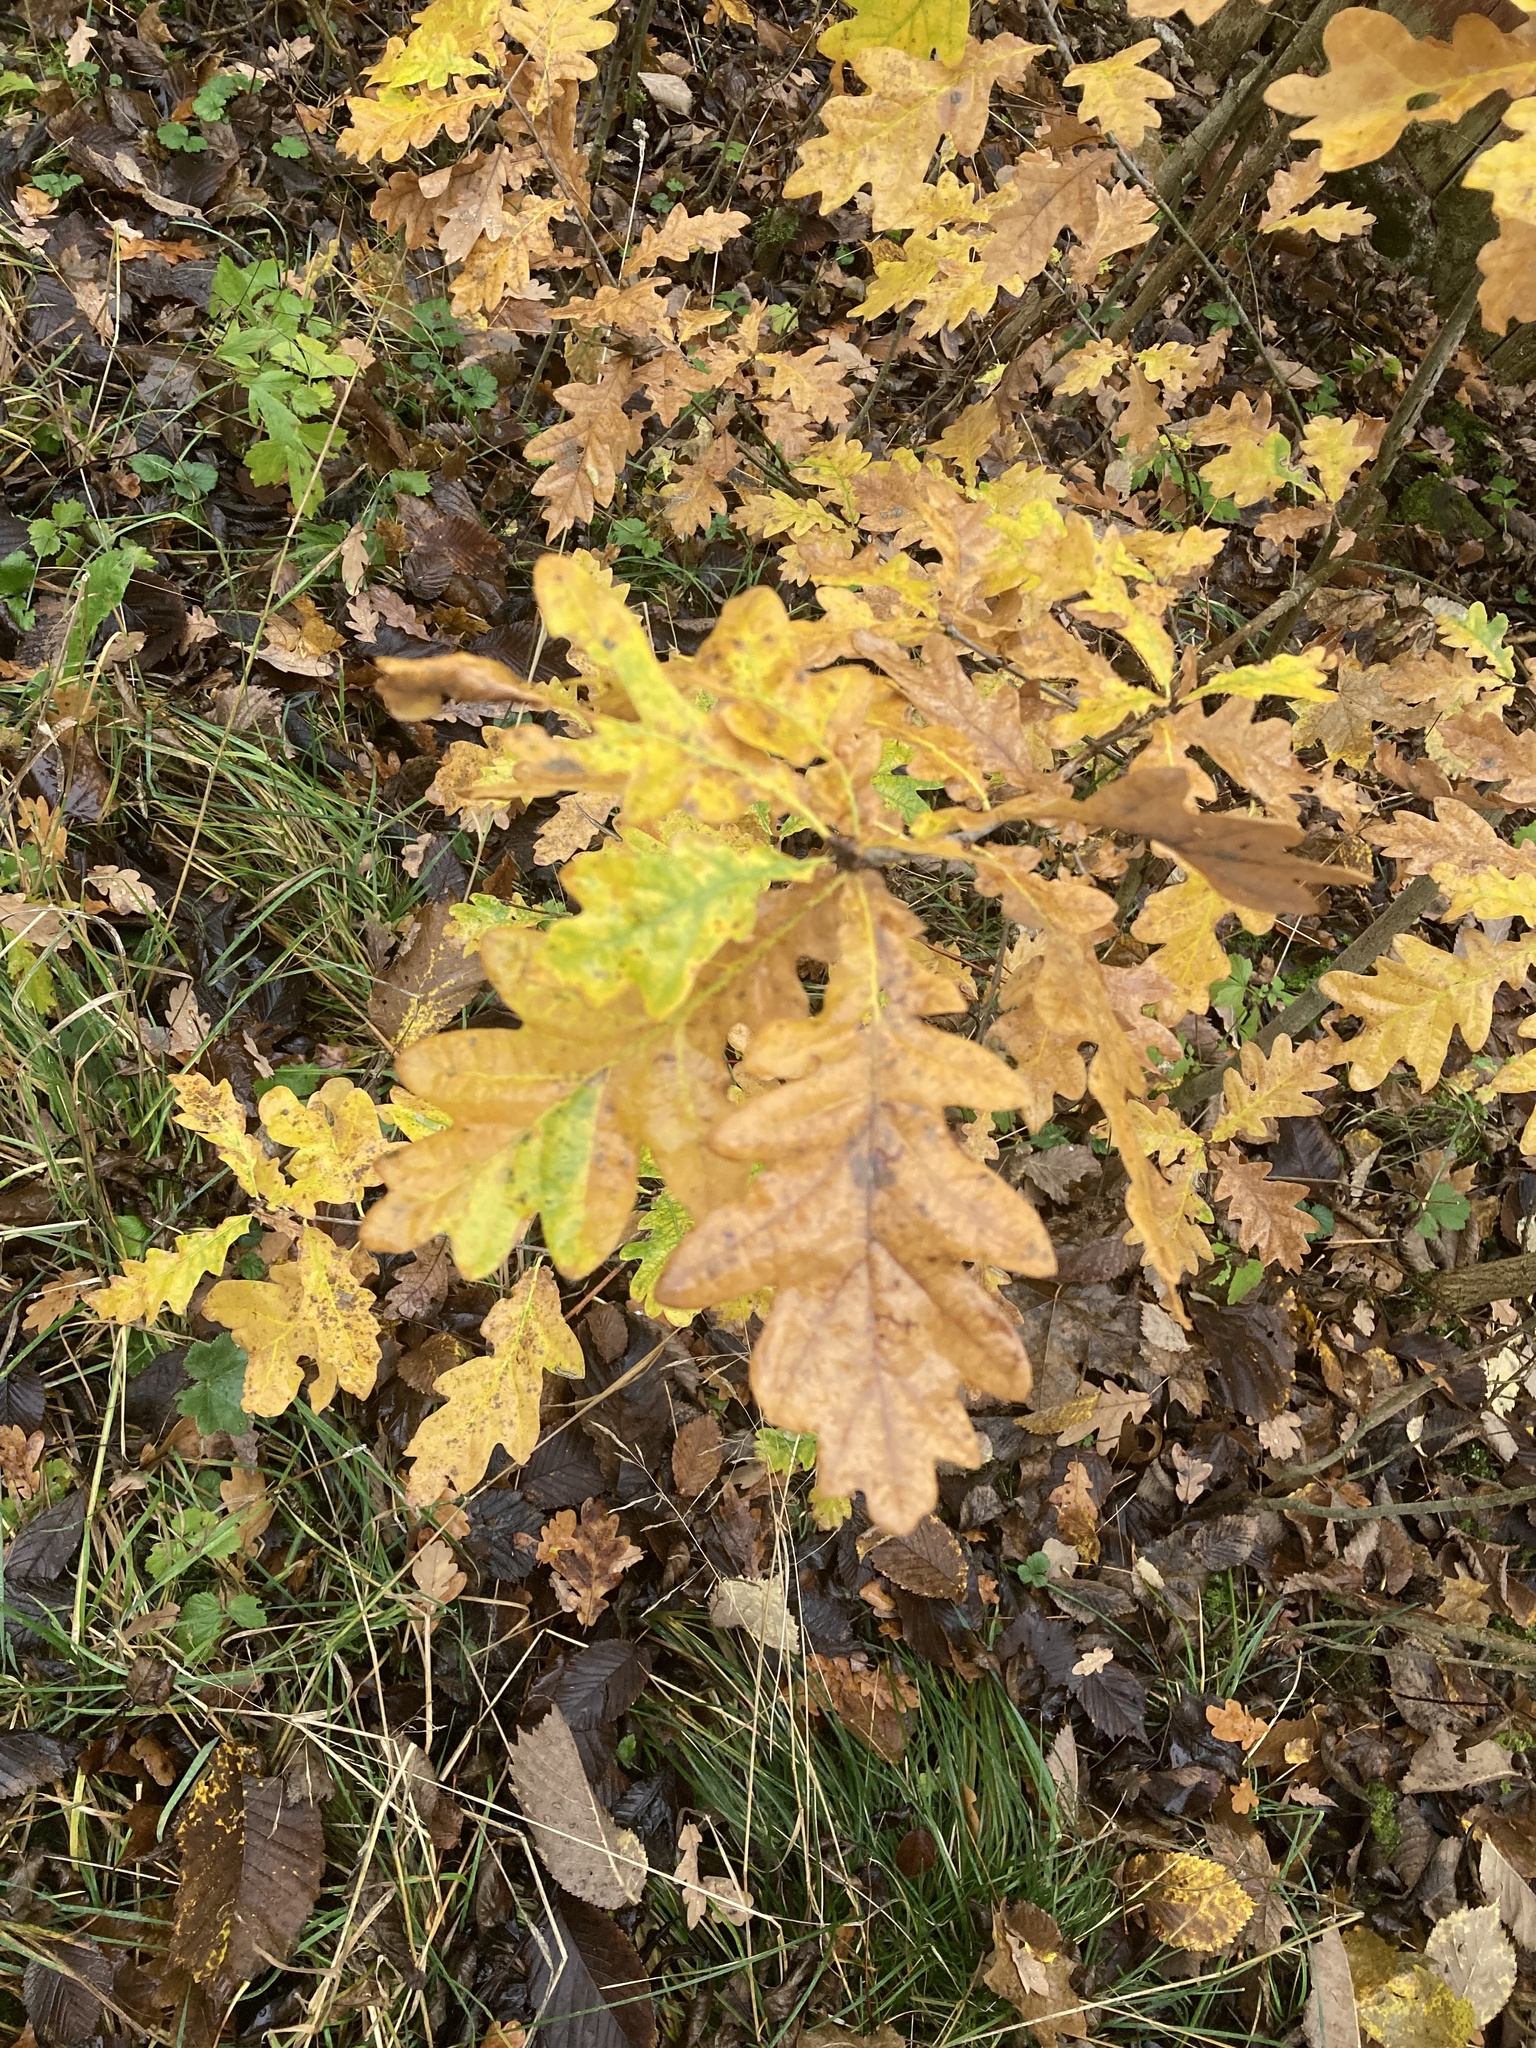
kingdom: Plantae
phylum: Tracheophyta
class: Magnoliopsida
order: Fagales
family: Fagaceae
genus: Quercus
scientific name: Quercus robur
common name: Pedunculate oak
